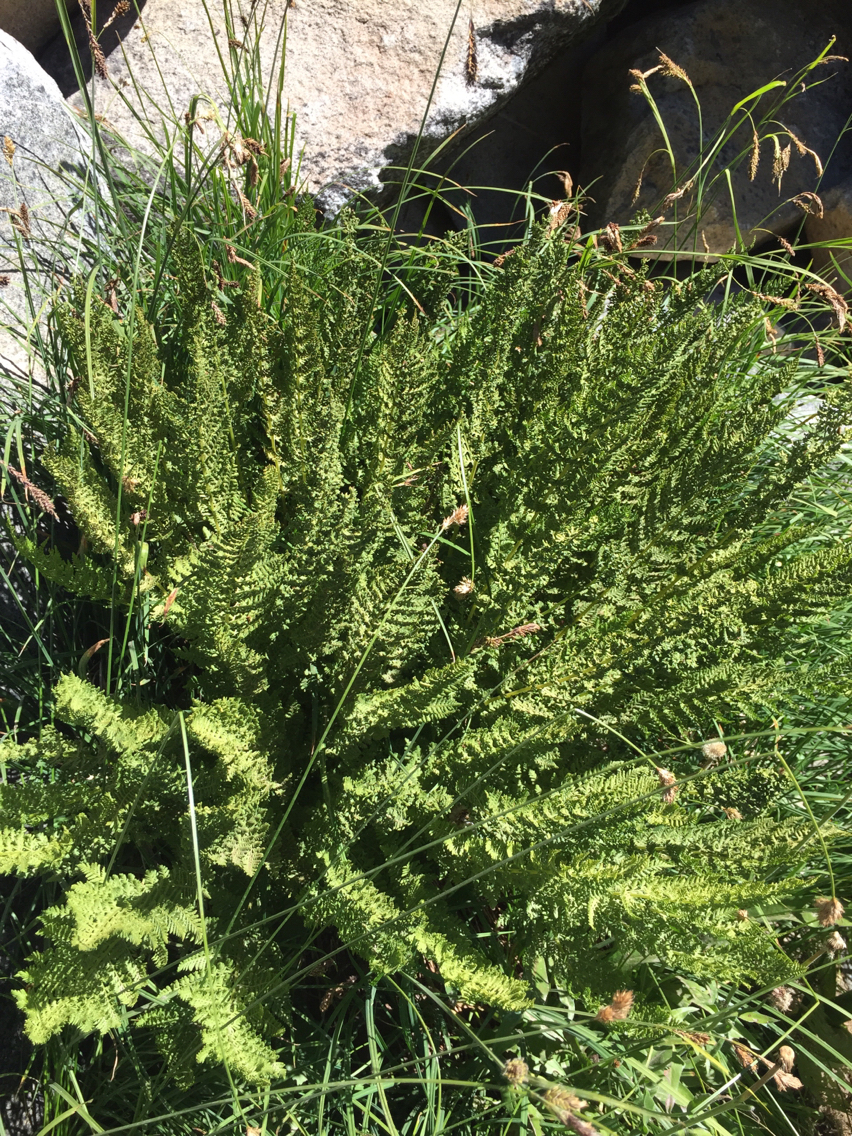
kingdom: Plantae
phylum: Tracheophyta
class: Polypodiopsida
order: Polypodiales
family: Athyriaceae
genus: Athyrium
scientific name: Athyrium americanum
